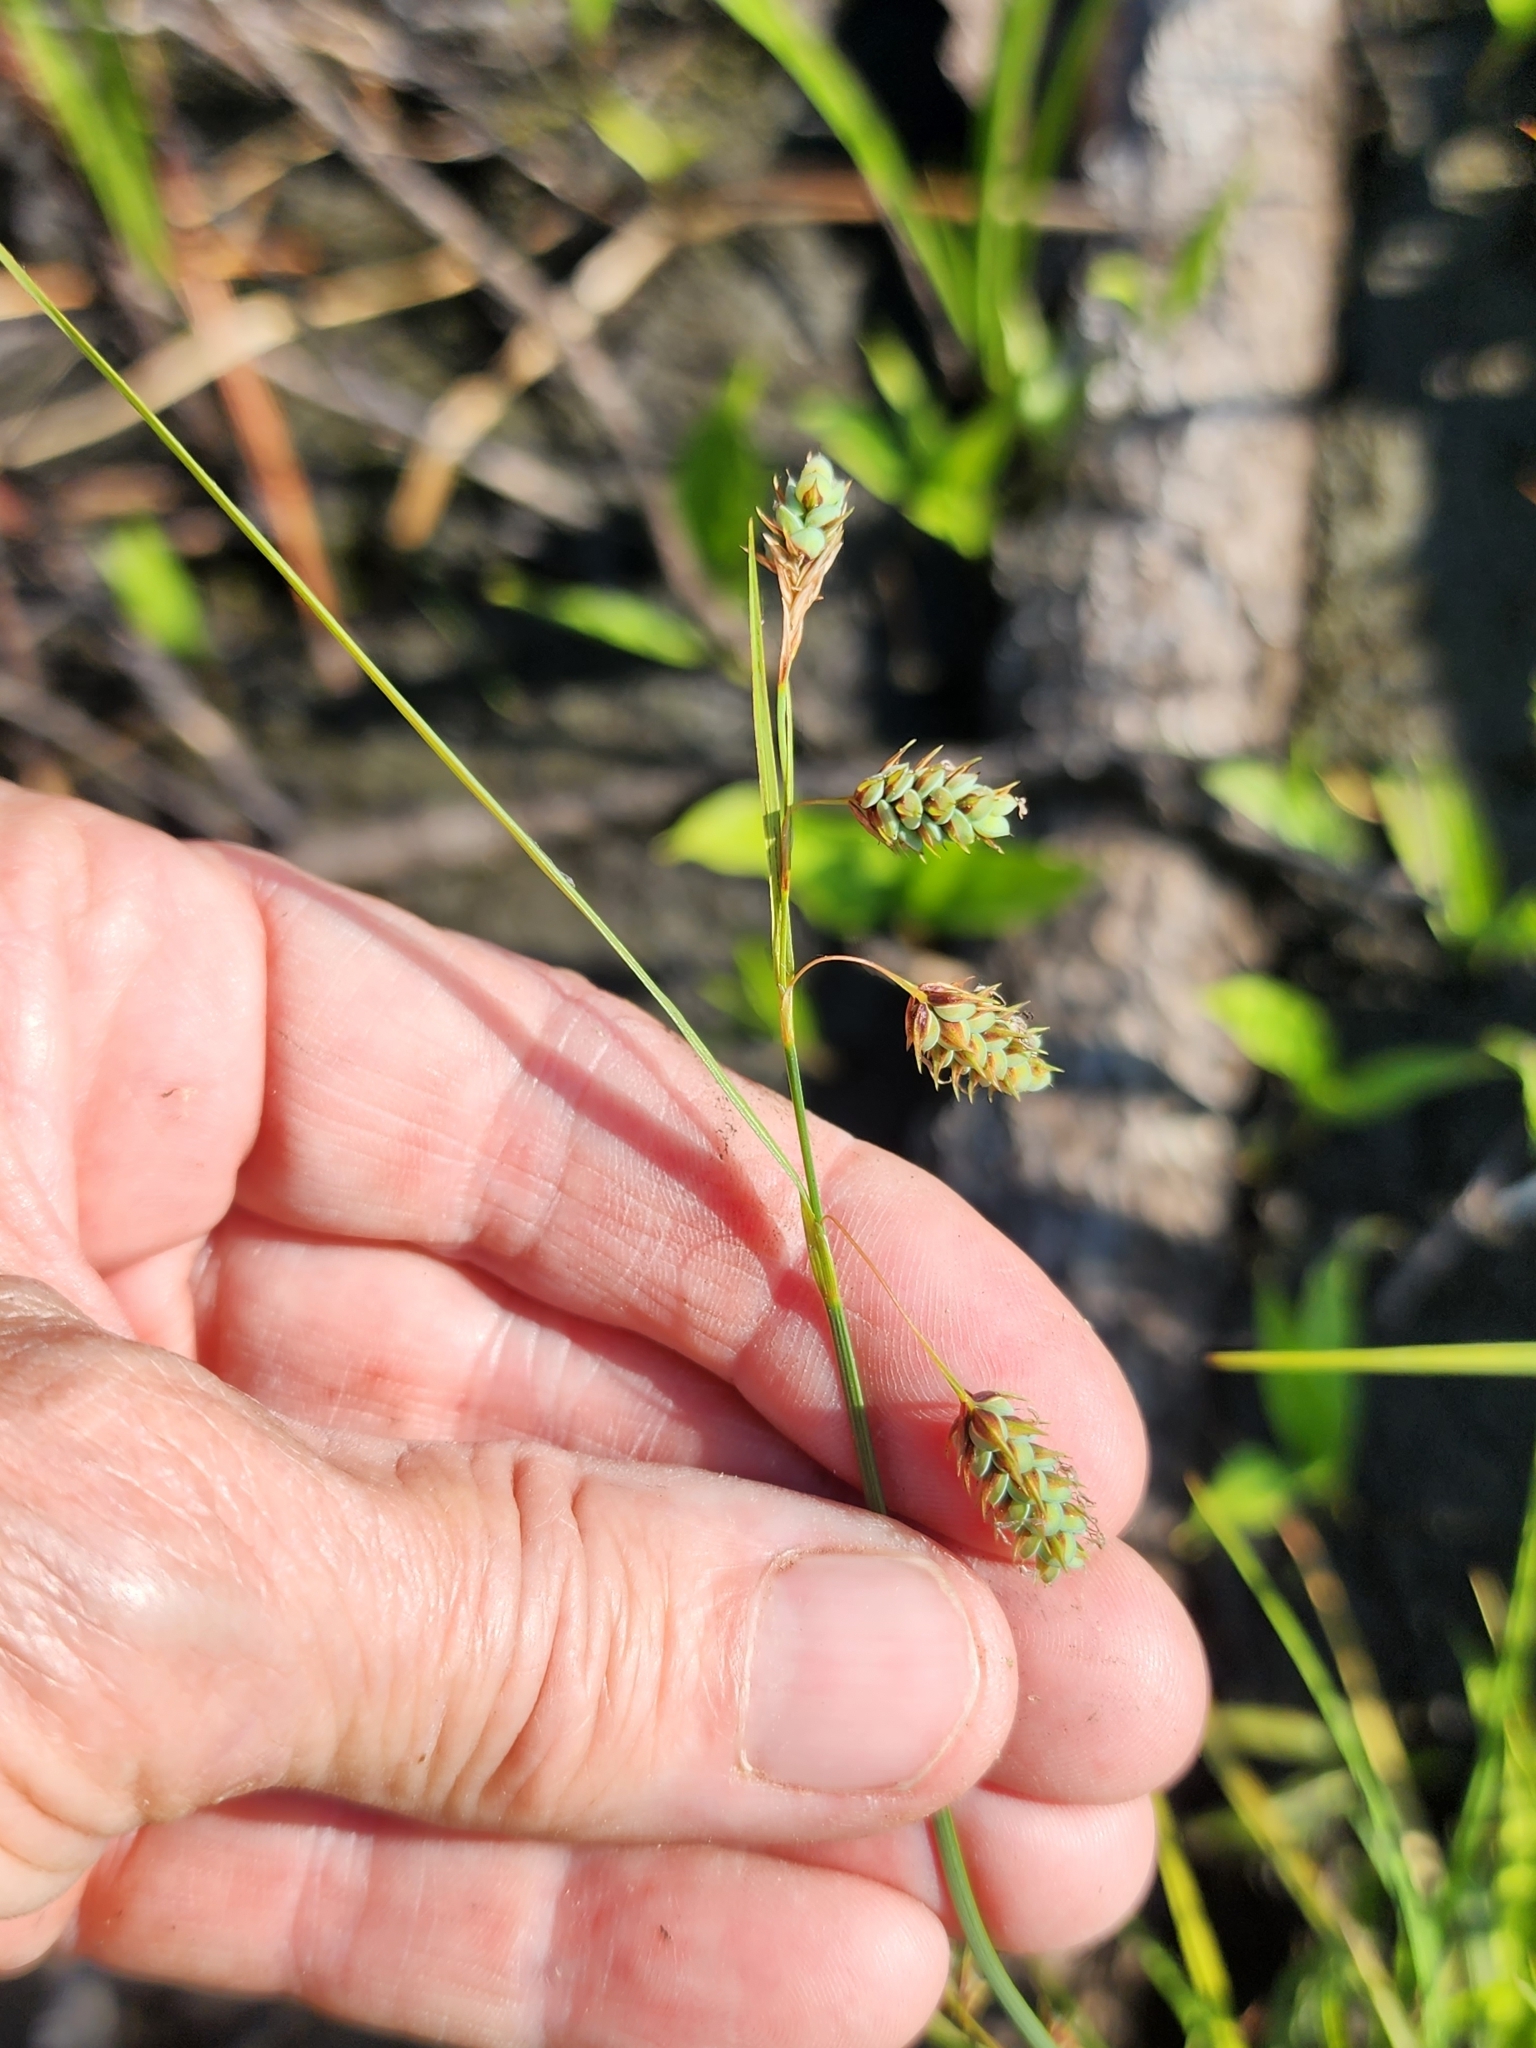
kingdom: Plantae
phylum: Tracheophyta
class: Liliopsida
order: Poales
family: Cyperaceae
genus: Carex
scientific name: Carex magellanica
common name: Bog sedge
